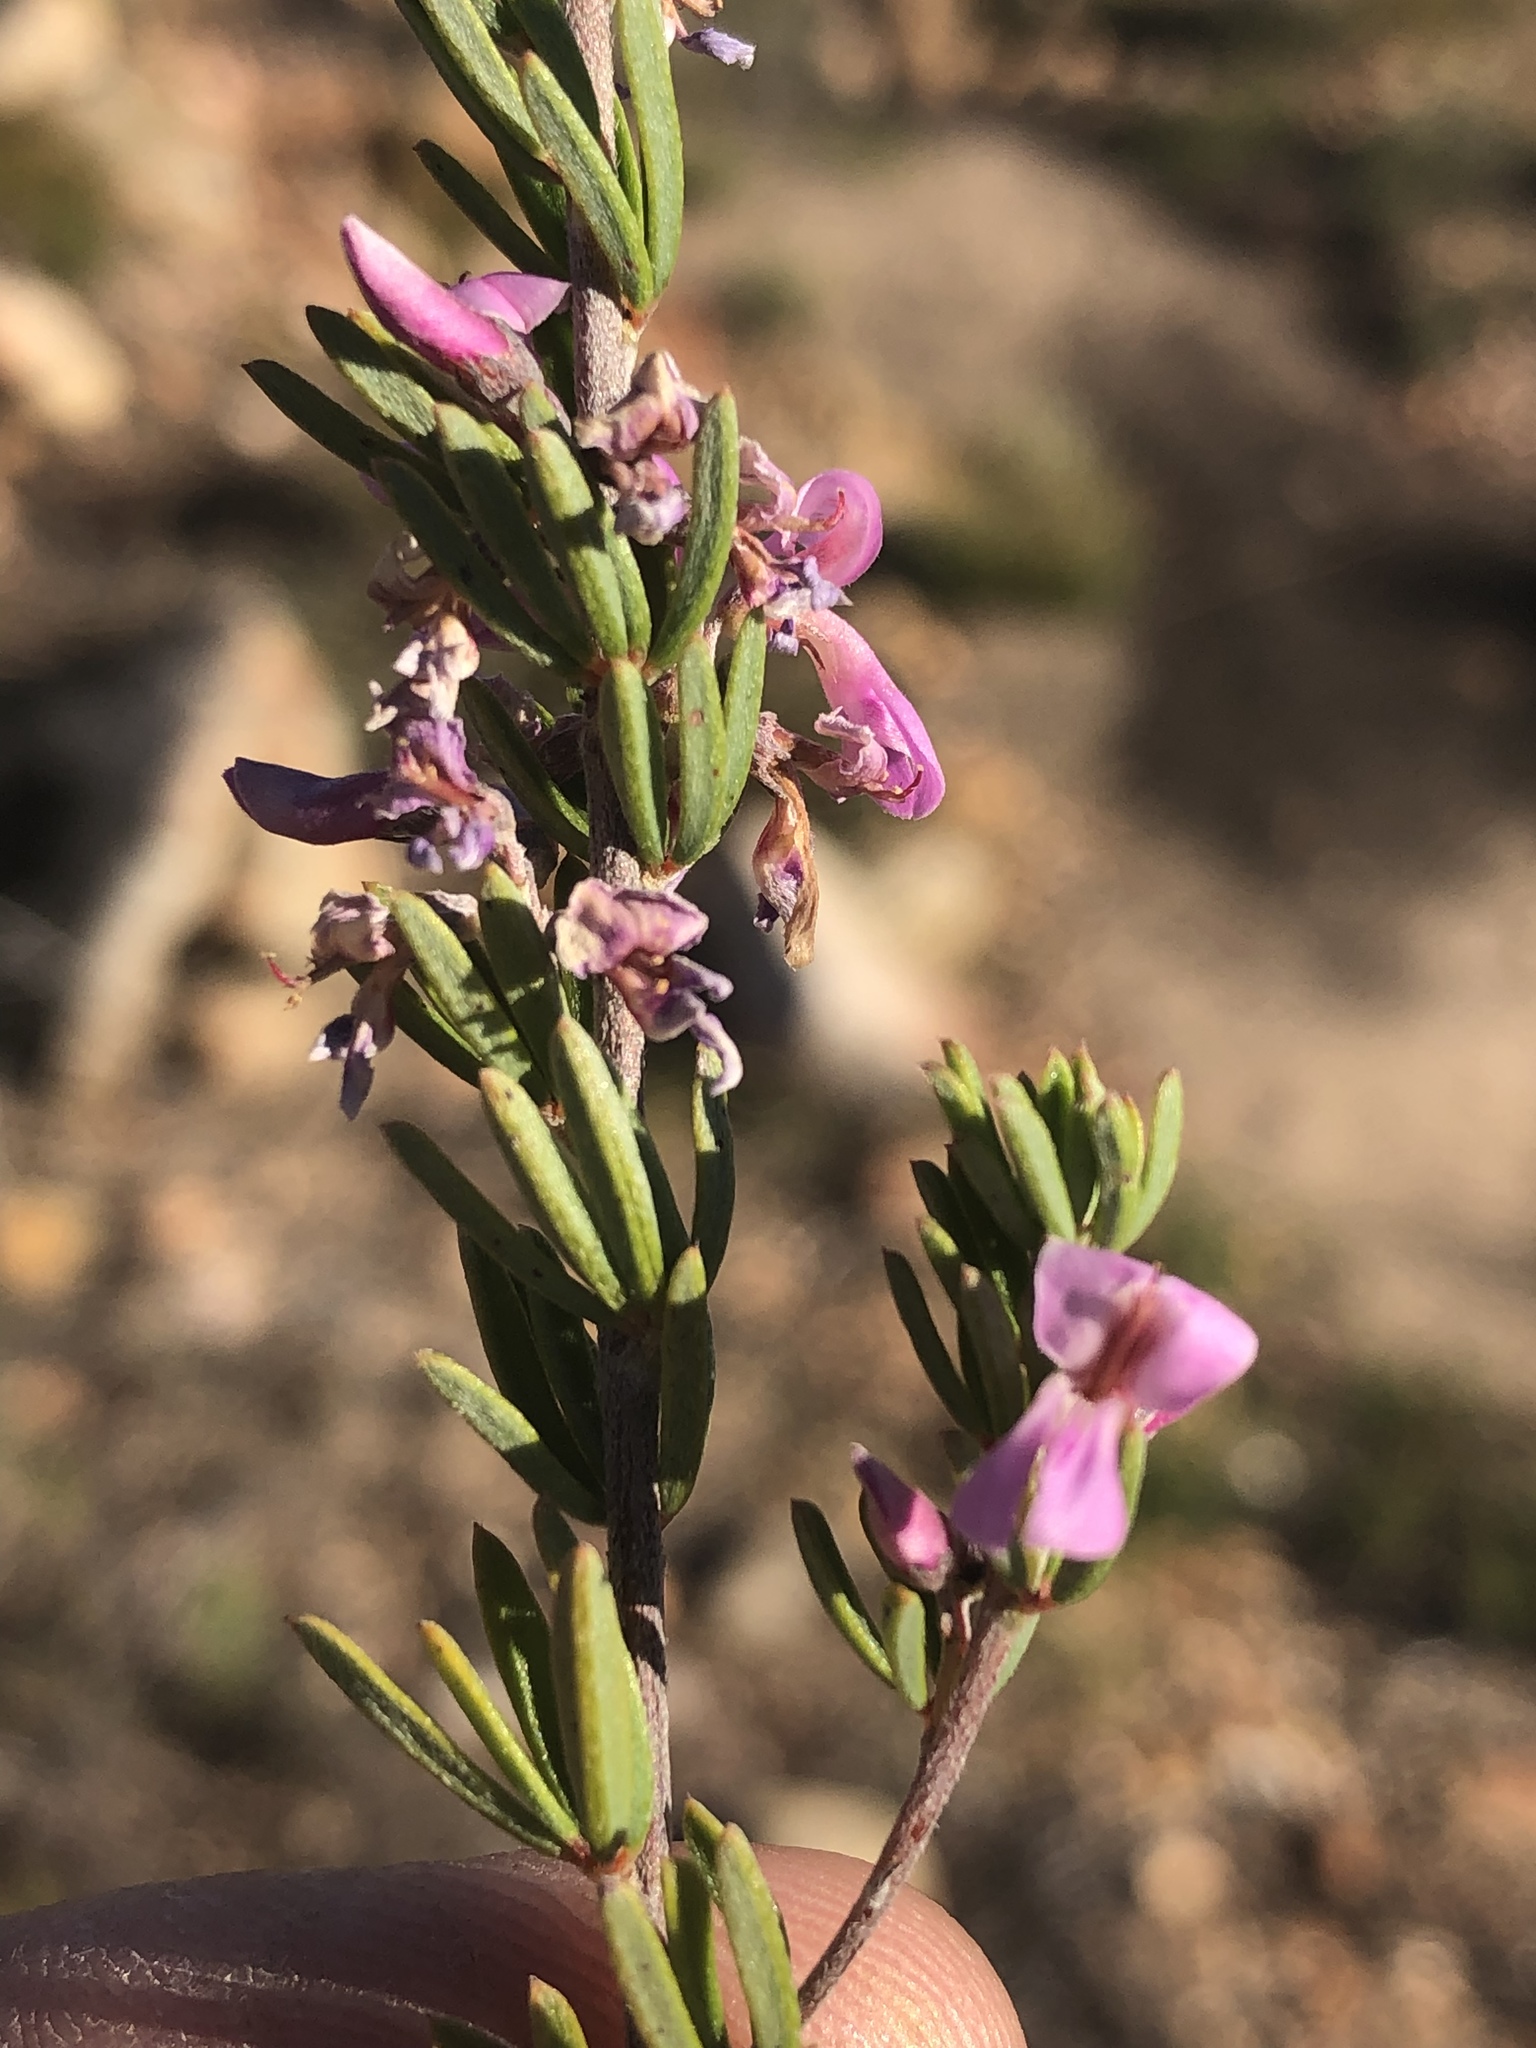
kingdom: Plantae
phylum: Tracheophyta
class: Magnoliopsida
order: Fabales
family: Fabaceae
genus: Indigofera
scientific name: Indigofera pappei
